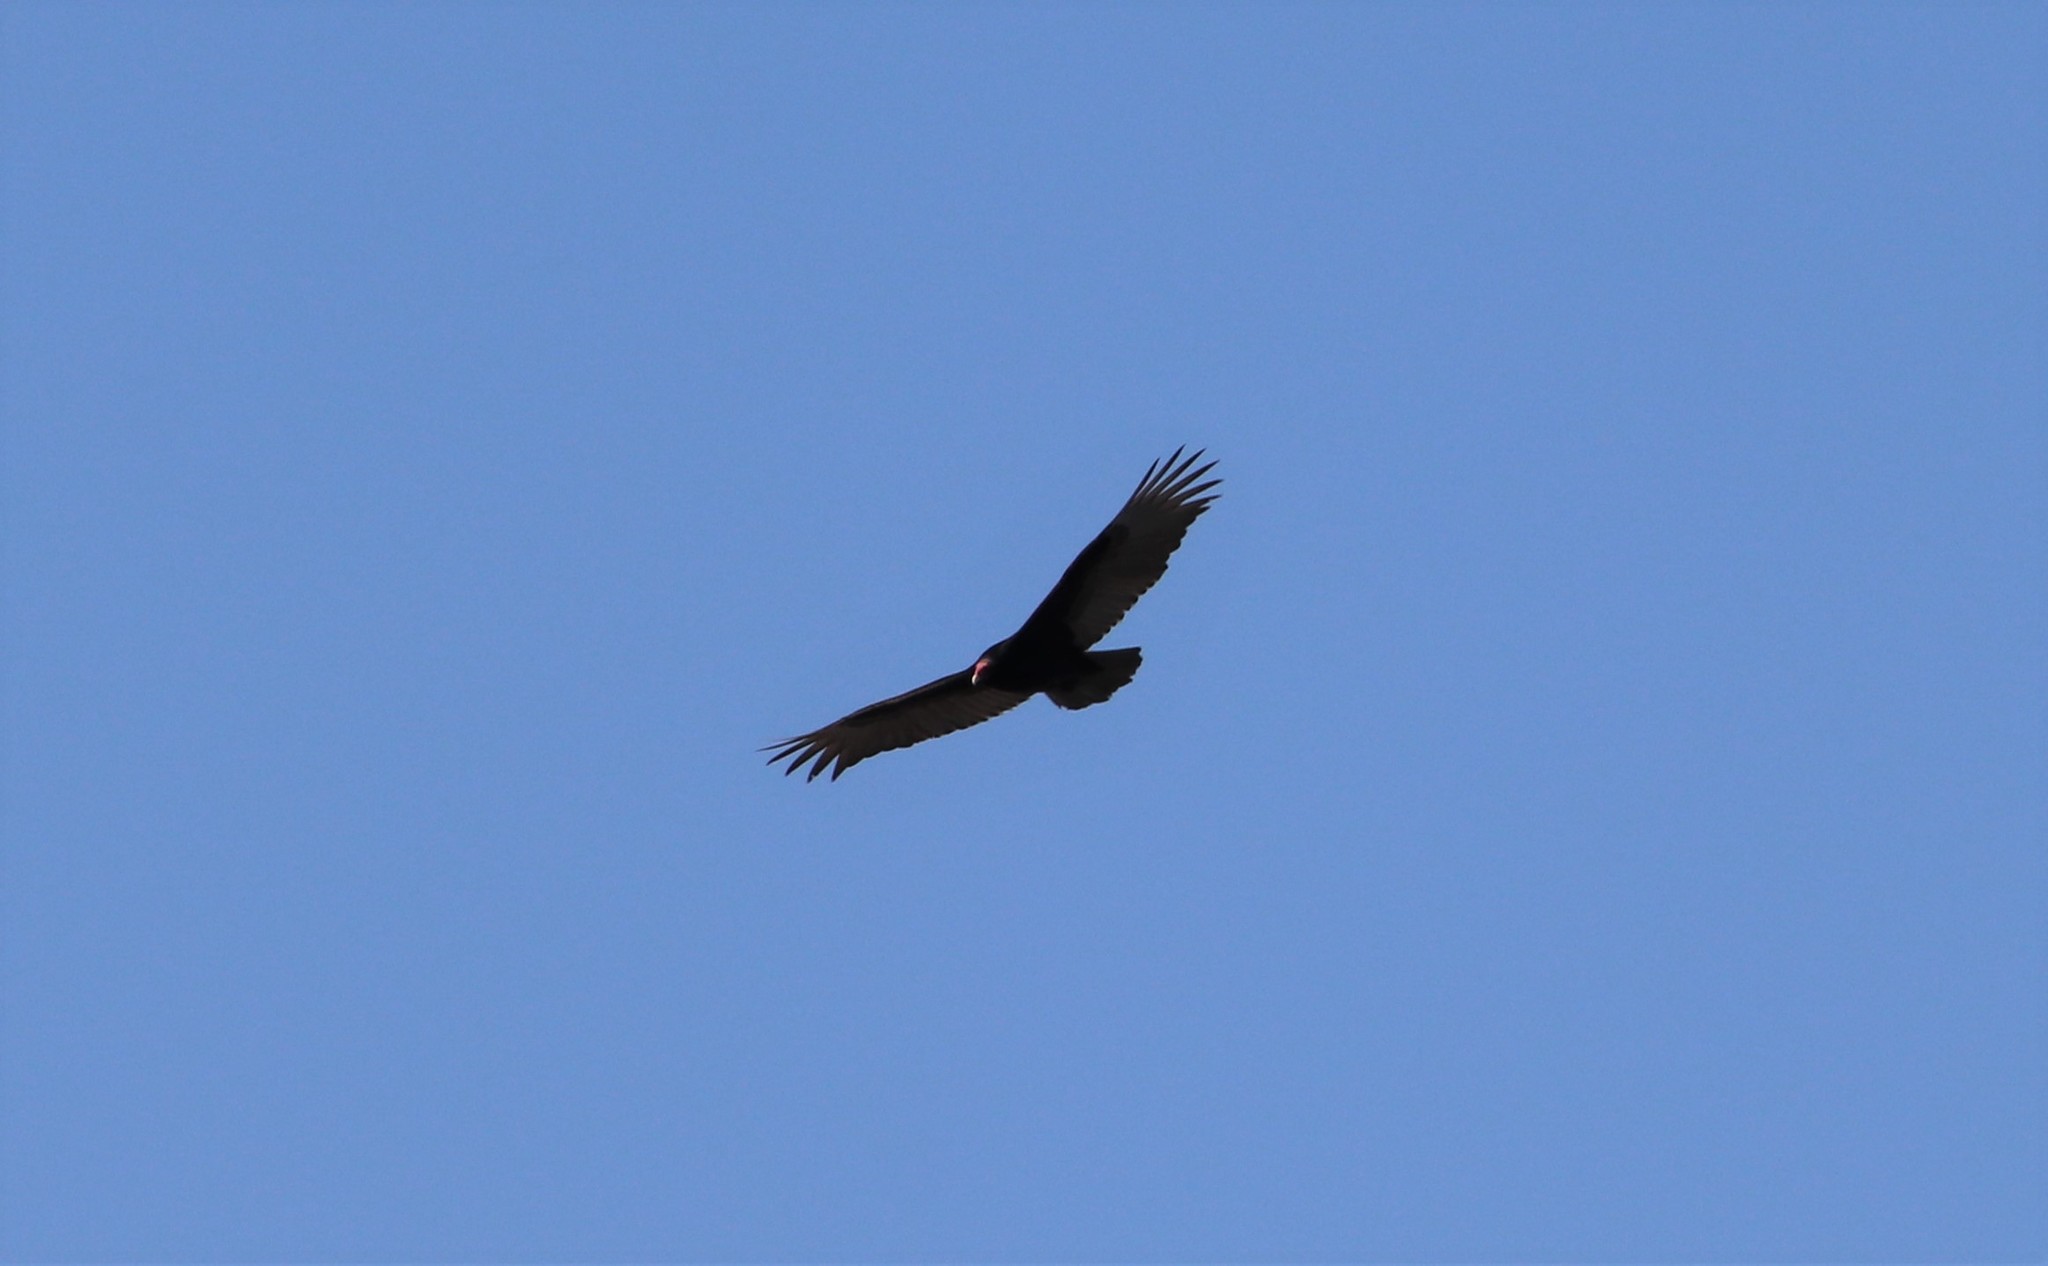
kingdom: Animalia
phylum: Chordata
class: Aves
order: Accipitriformes
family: Cathartidae
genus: Cathartes
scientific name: Cathartes aura
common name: Turkey vulture
